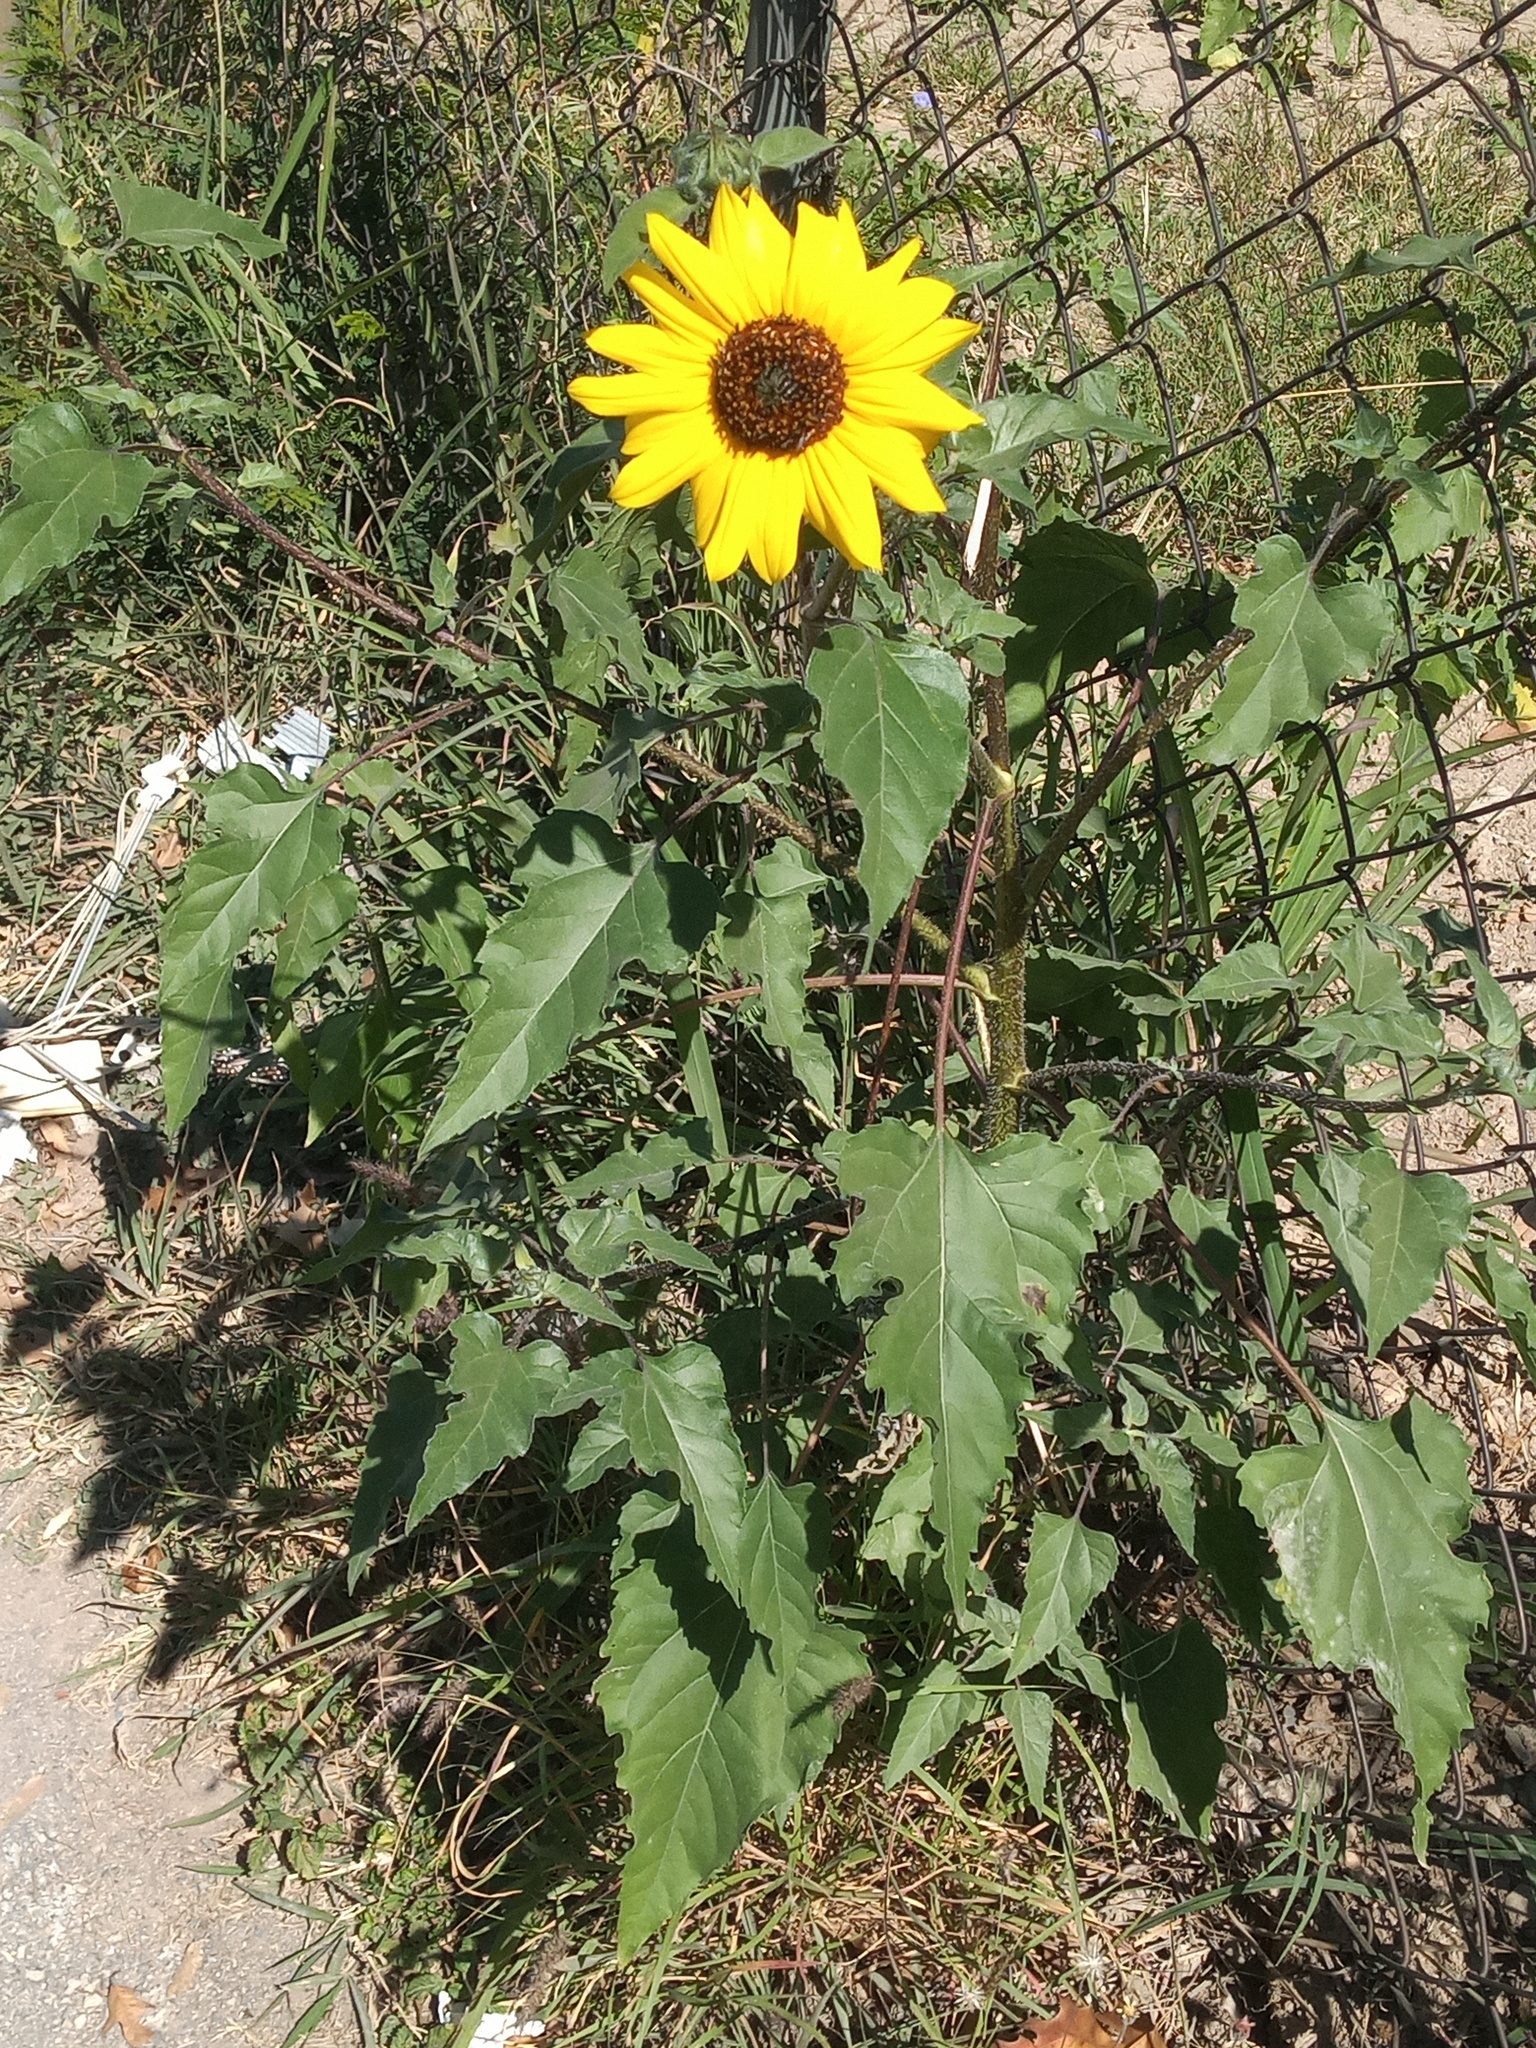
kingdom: Plantae
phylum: Tracheophyta
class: Magnoliopsida
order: Asterales
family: Asteraceae
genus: Helianthus
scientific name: Helianthus annuus
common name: Sunflower
